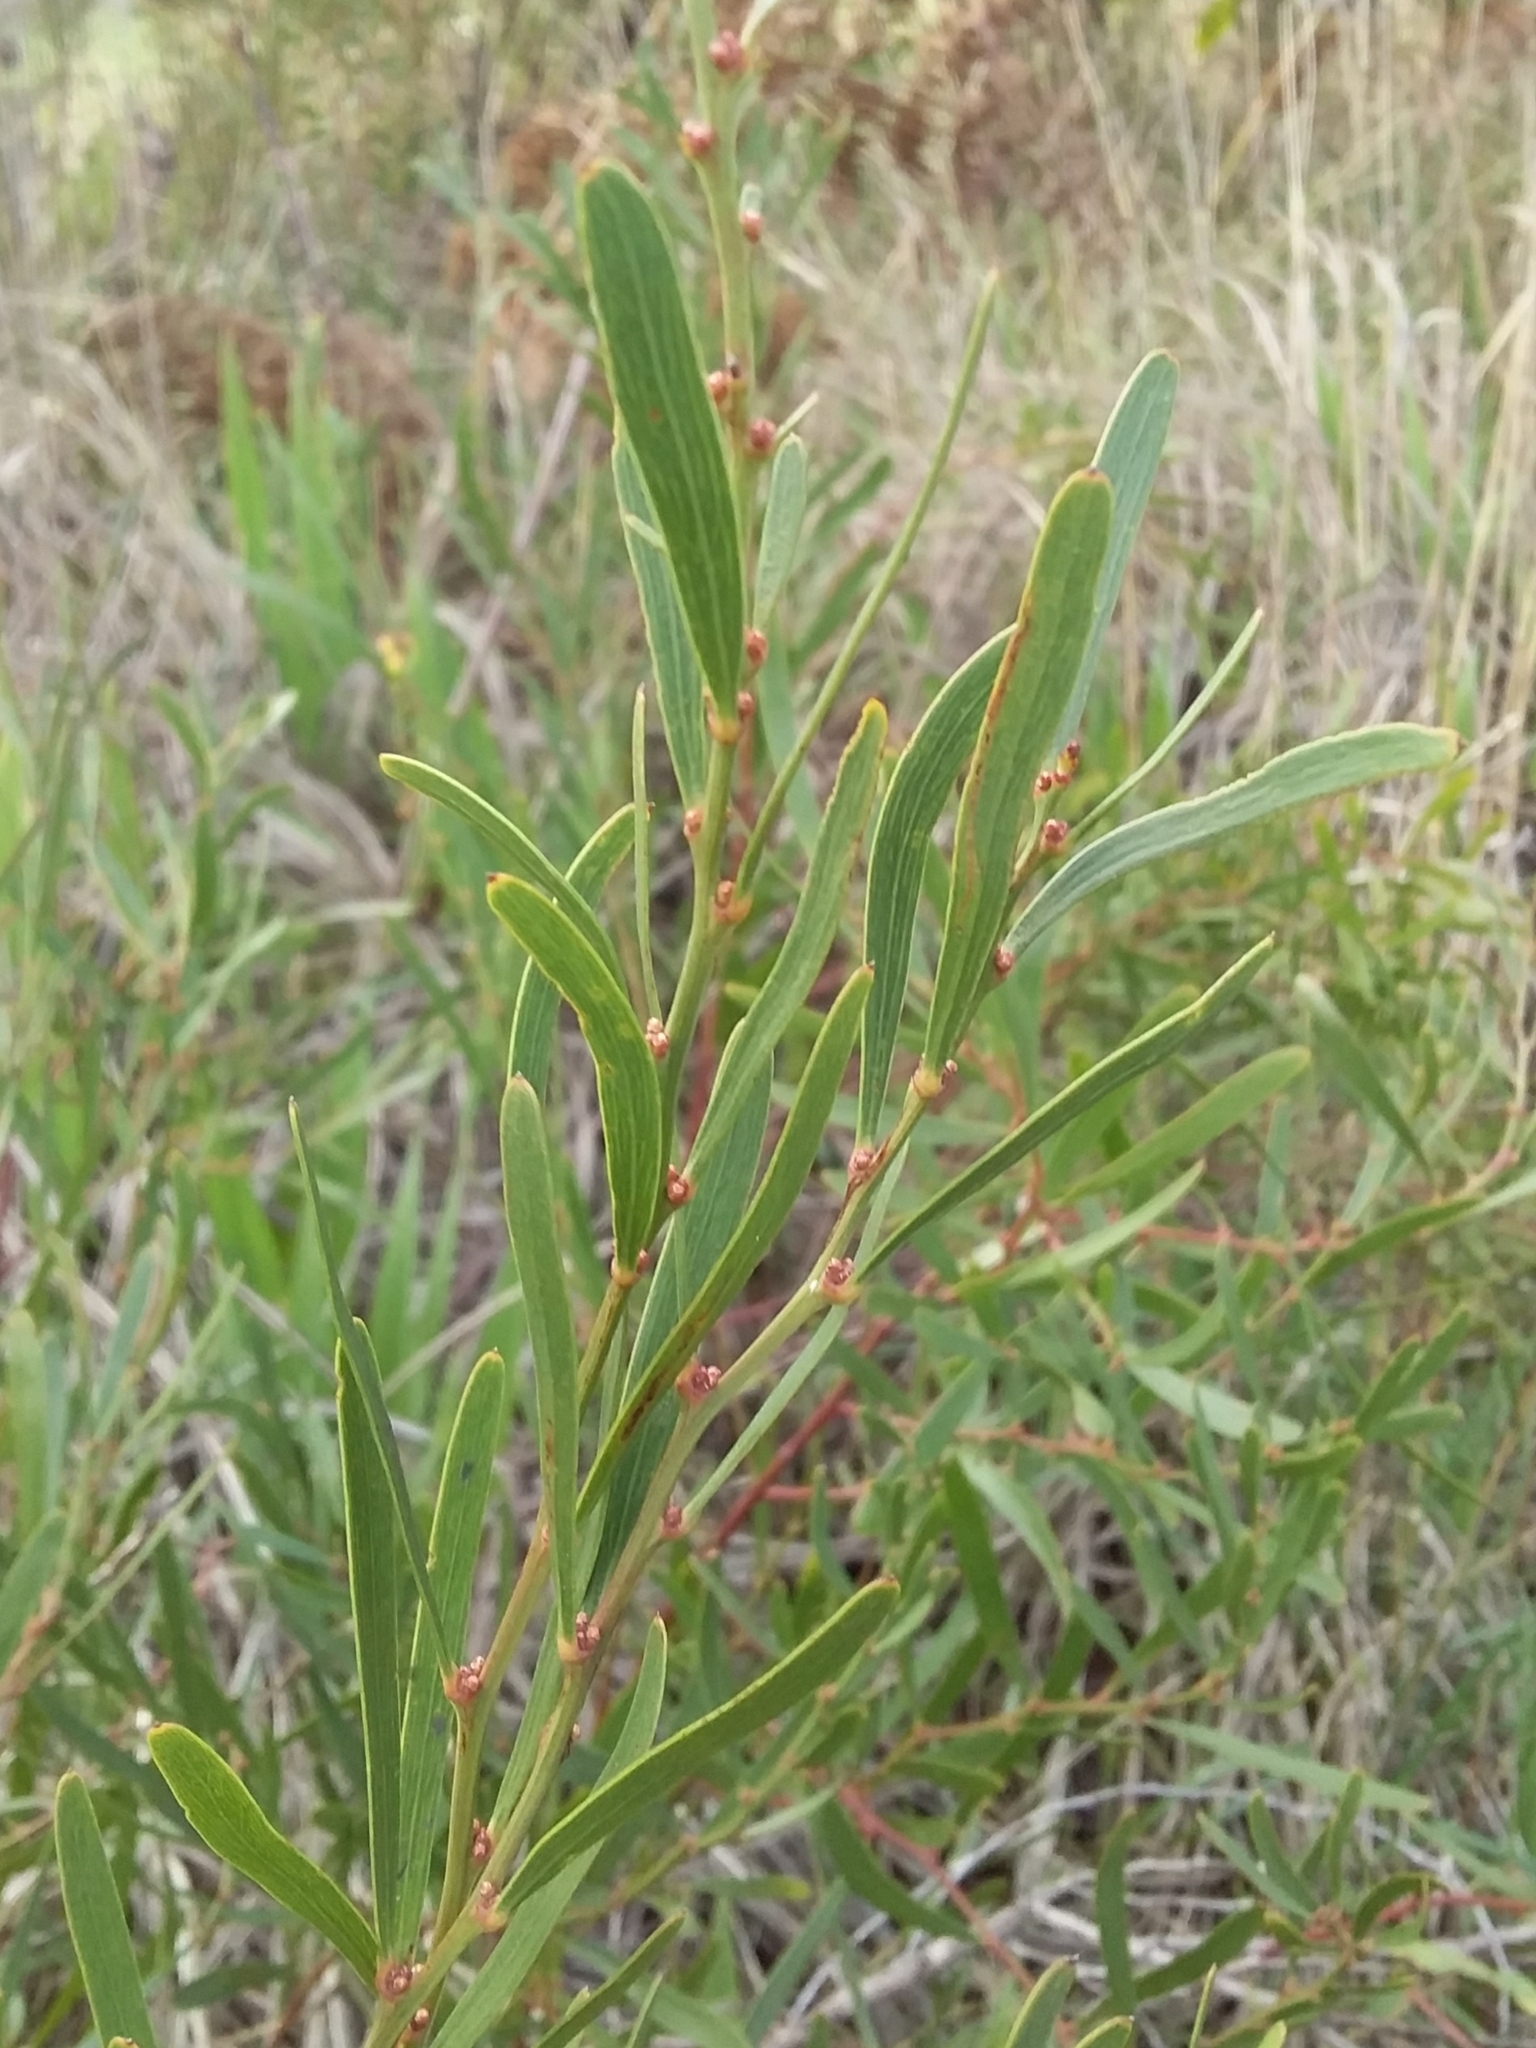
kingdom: Plantae
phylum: Tracheophyta
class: Magnoliopsida
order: Fabales
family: Fabaceae
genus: Daviesia
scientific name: Daviesia leptophylla
